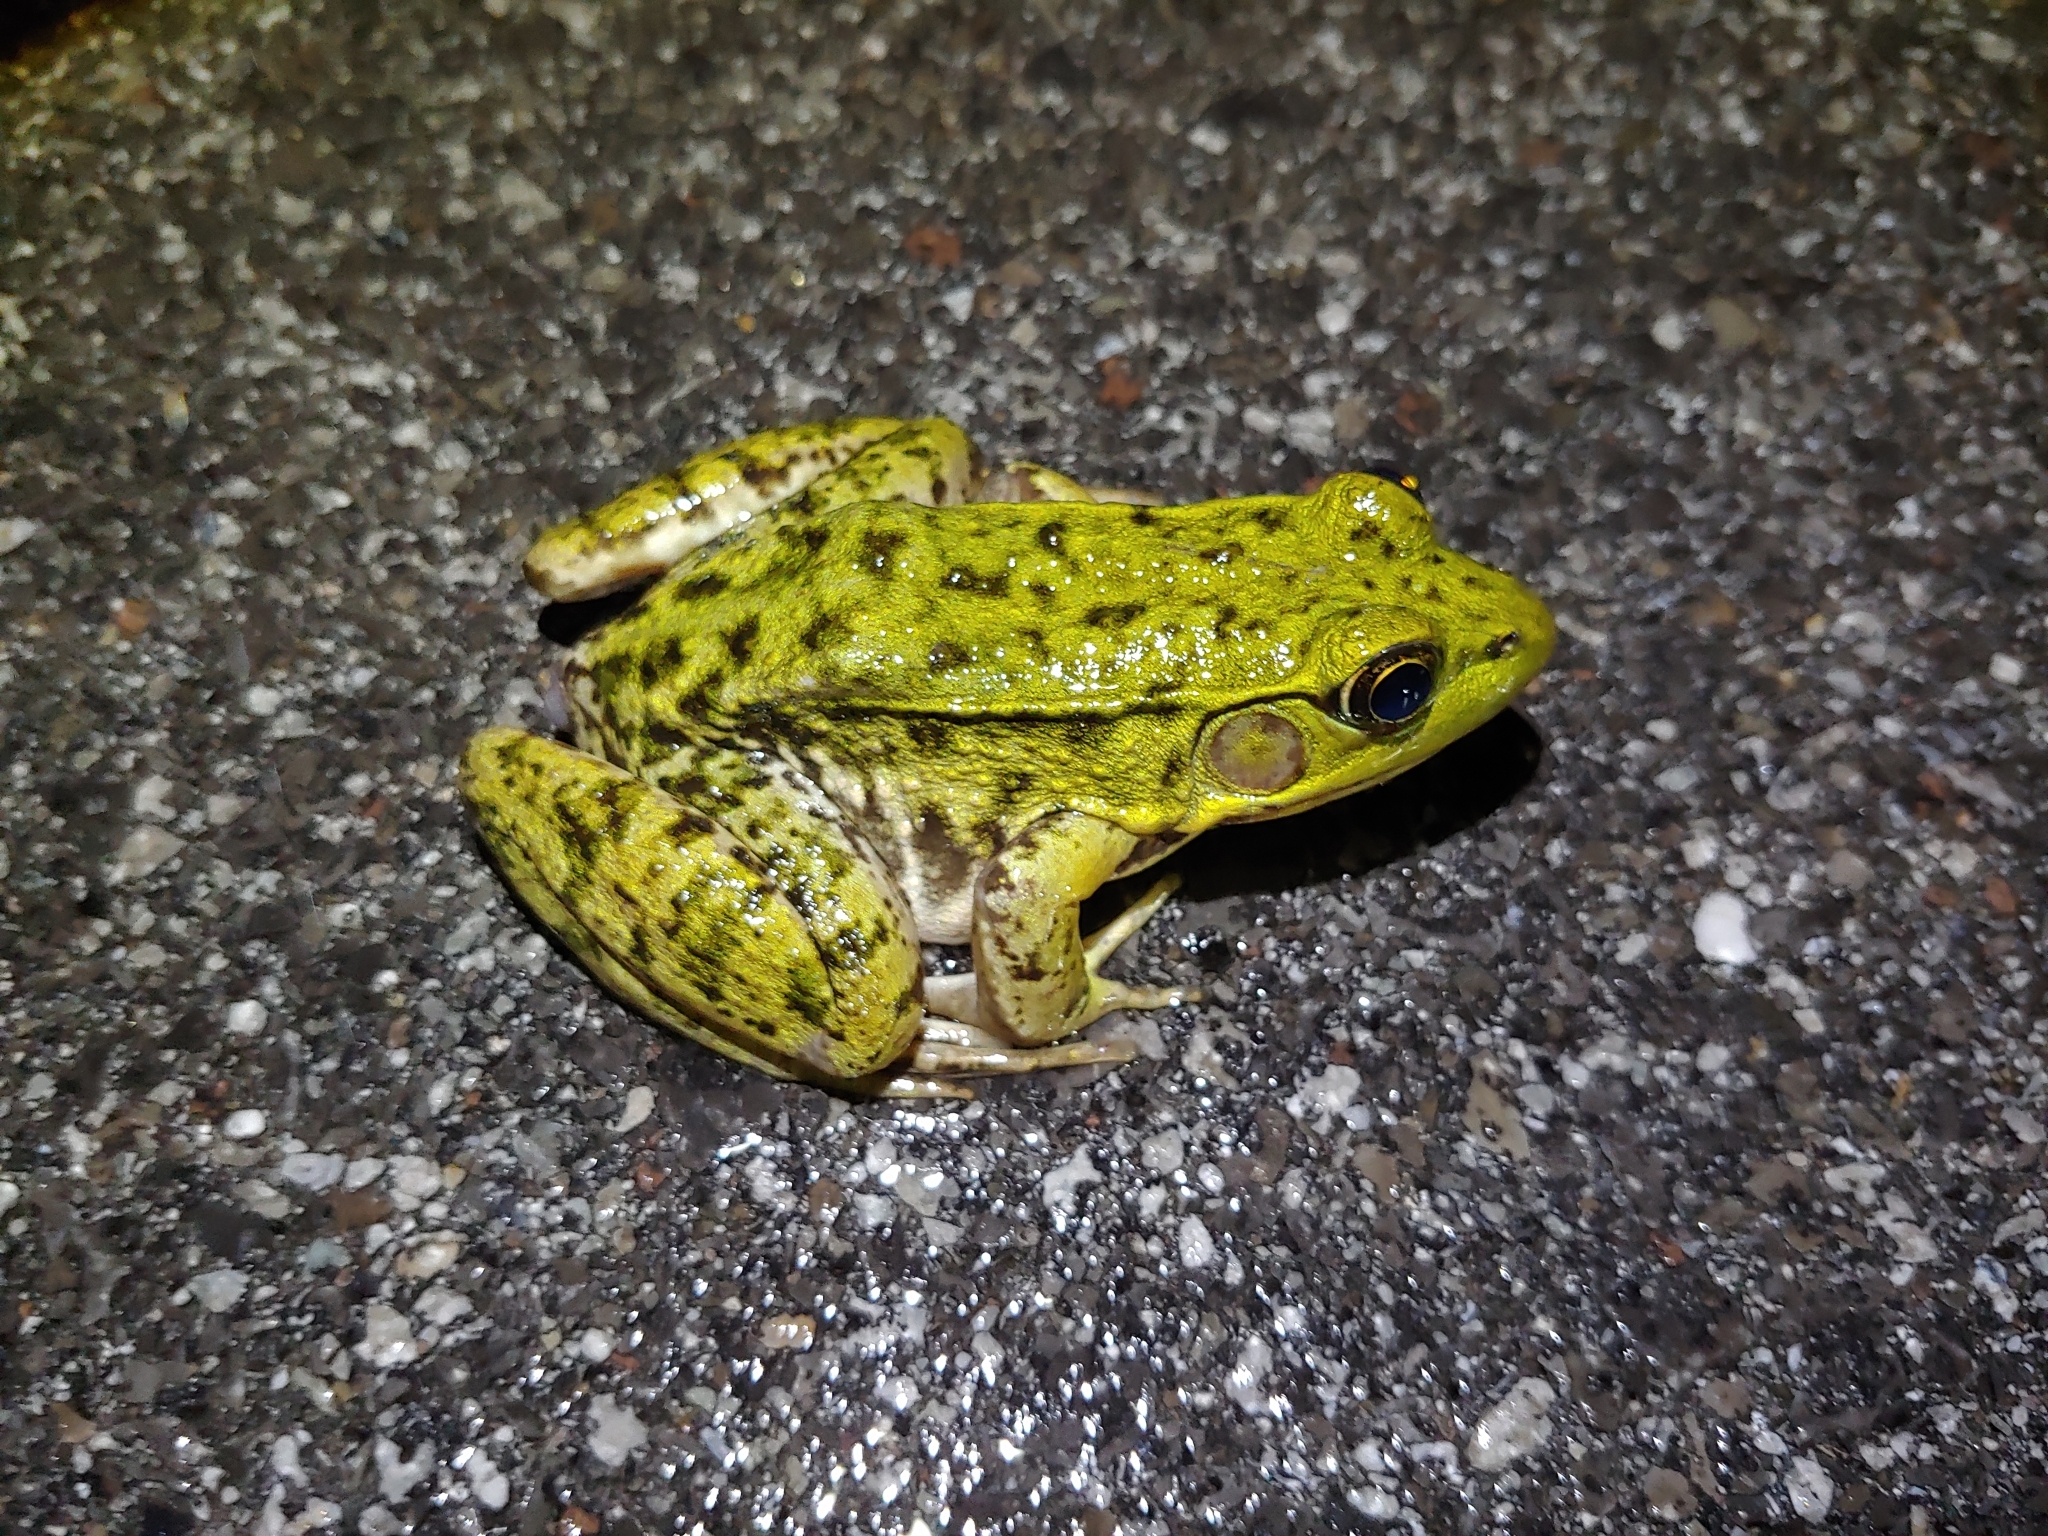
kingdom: Animalia
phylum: Chordata
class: Amphibia
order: Anura
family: Ranidae
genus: Lithobates
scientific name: Lithobates clamitans
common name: Green frog
